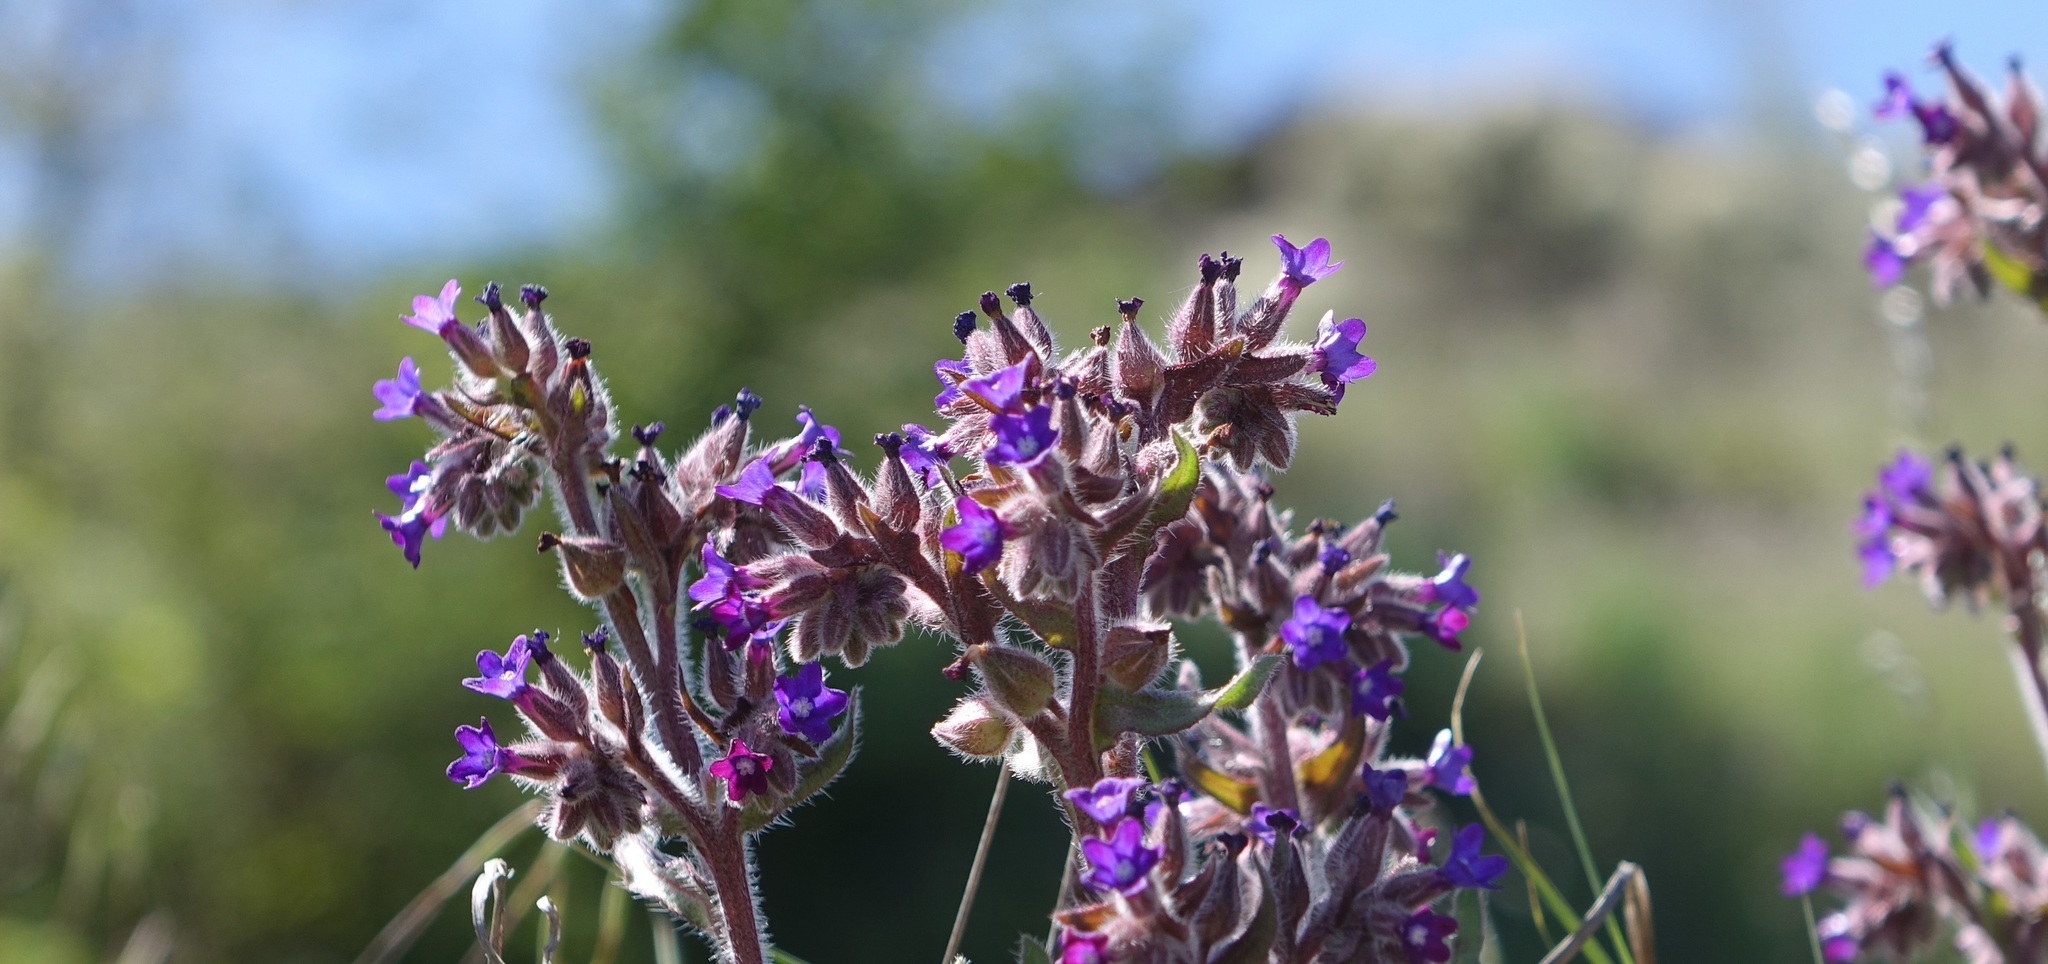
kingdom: Plantae
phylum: Tracheophyta
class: Magnoliopsida
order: Boraginales
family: Boraginaceae
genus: Anchusa
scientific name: Anchusa undulata
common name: Undulate alkanet
